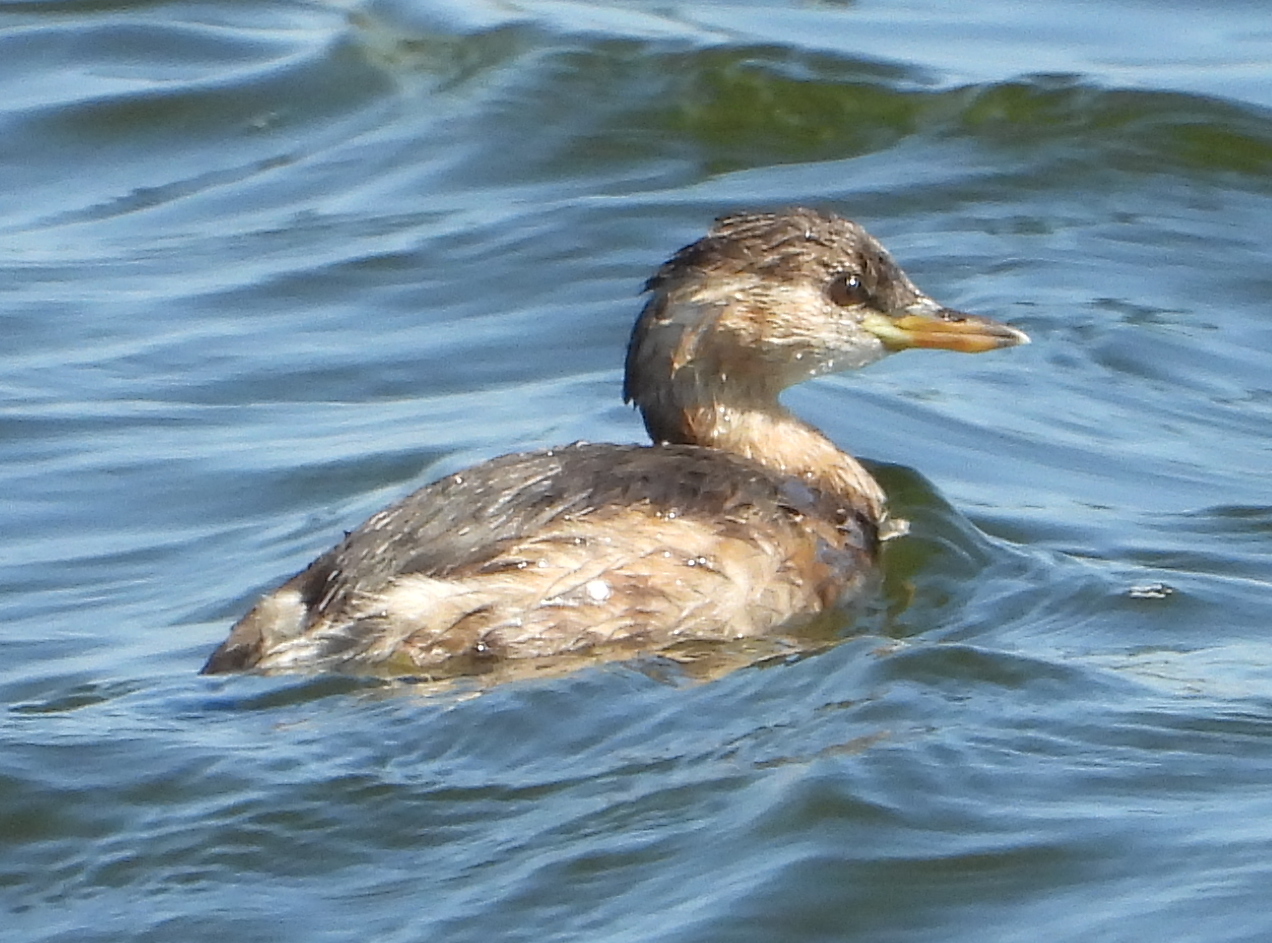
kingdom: Animalia
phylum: Chordata
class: Aves
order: Podicipediformes
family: Podicipedidae
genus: Tachybaptus
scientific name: Tachybaptus ruficollis
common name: Little grebe
